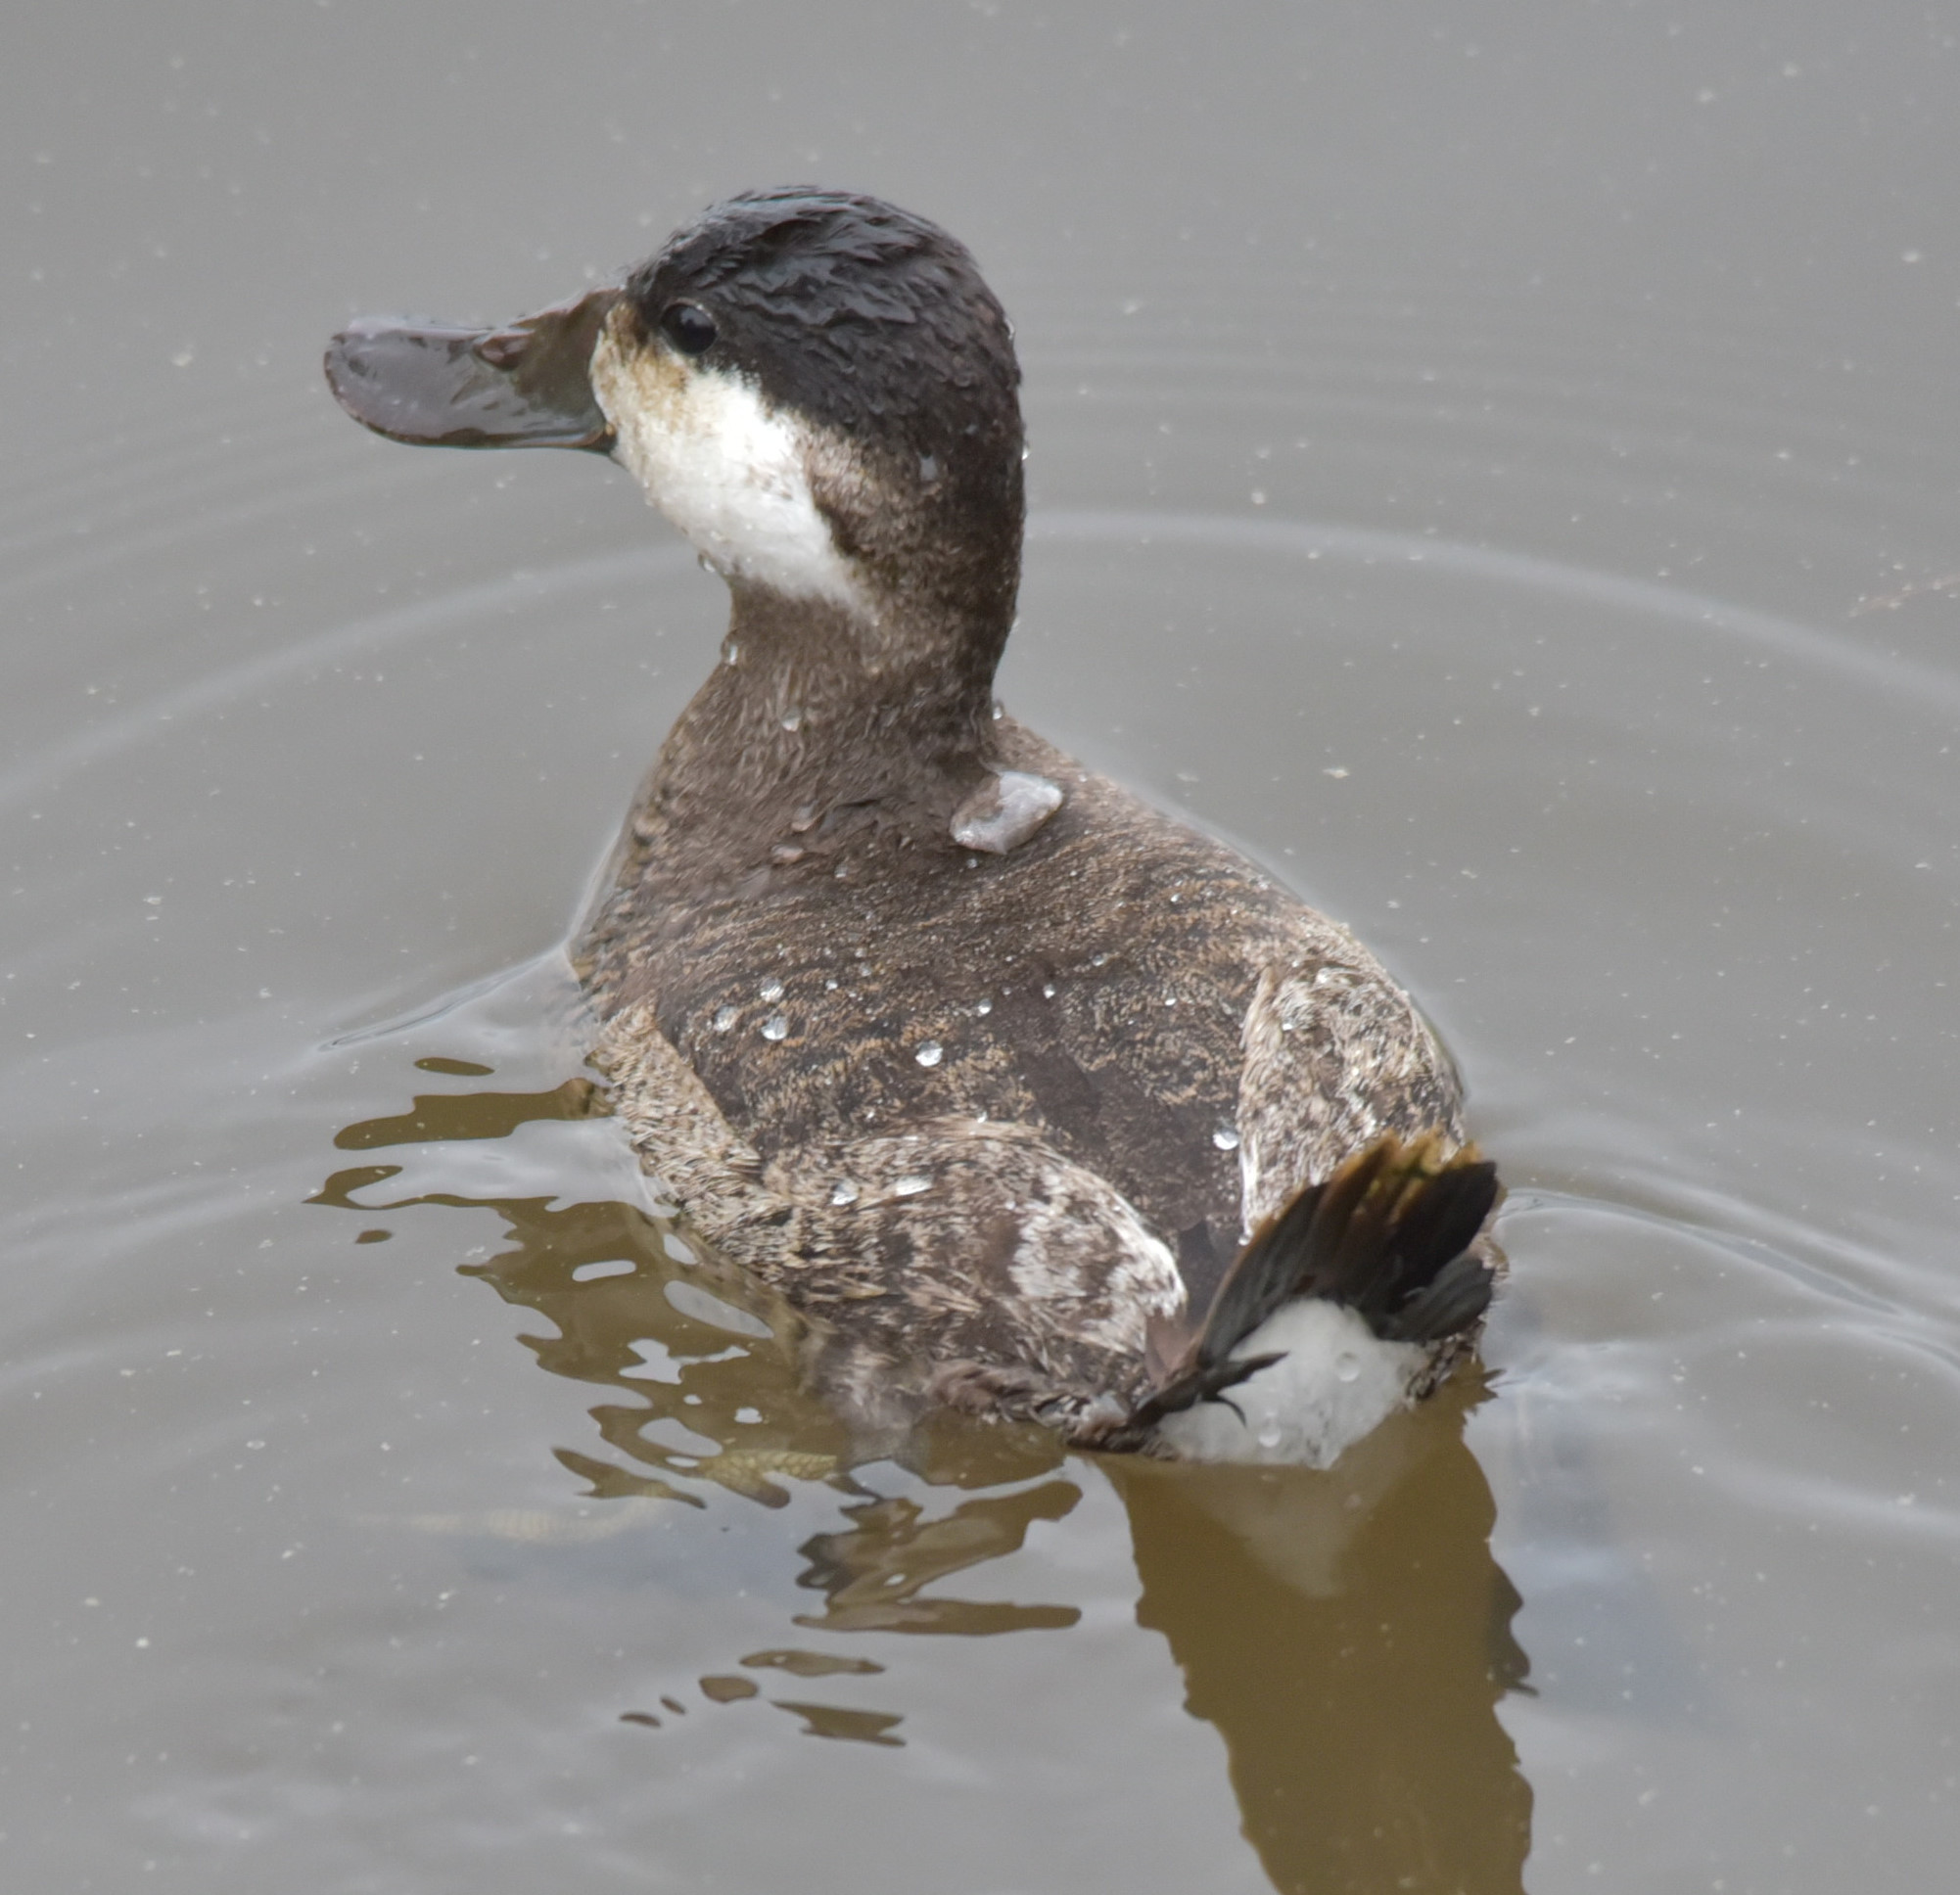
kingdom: Animalia
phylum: Chordata
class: Aves
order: Anseriformes
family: Anatidae
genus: Oxyura
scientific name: Oxyura jamaicensis
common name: Ruddy duck
